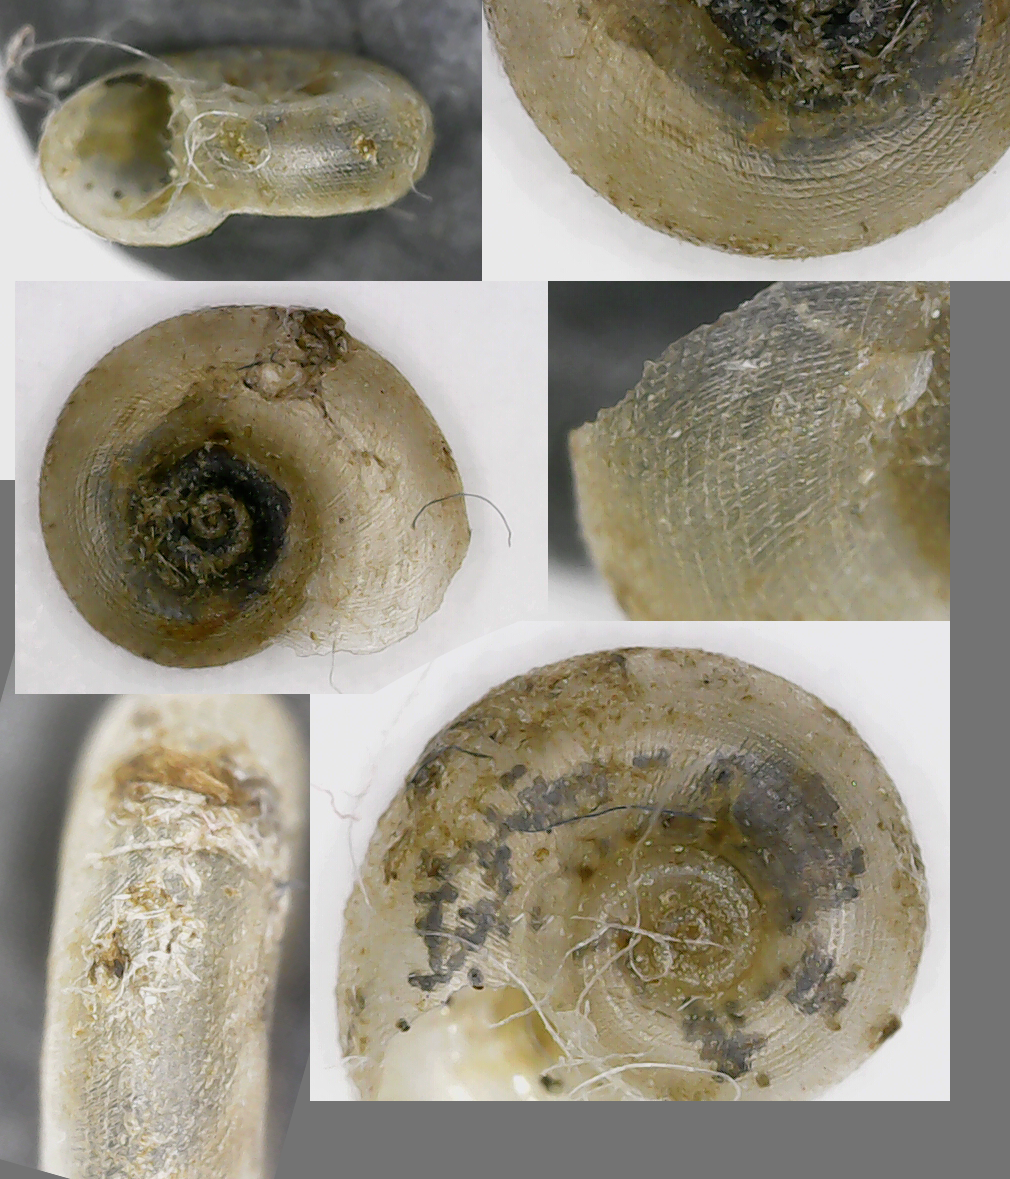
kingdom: Animalia
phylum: Mollusca
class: Gastropoda
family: Planorbidae
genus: Gyraulus
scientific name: Gyraulus albus
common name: White ramshorn
